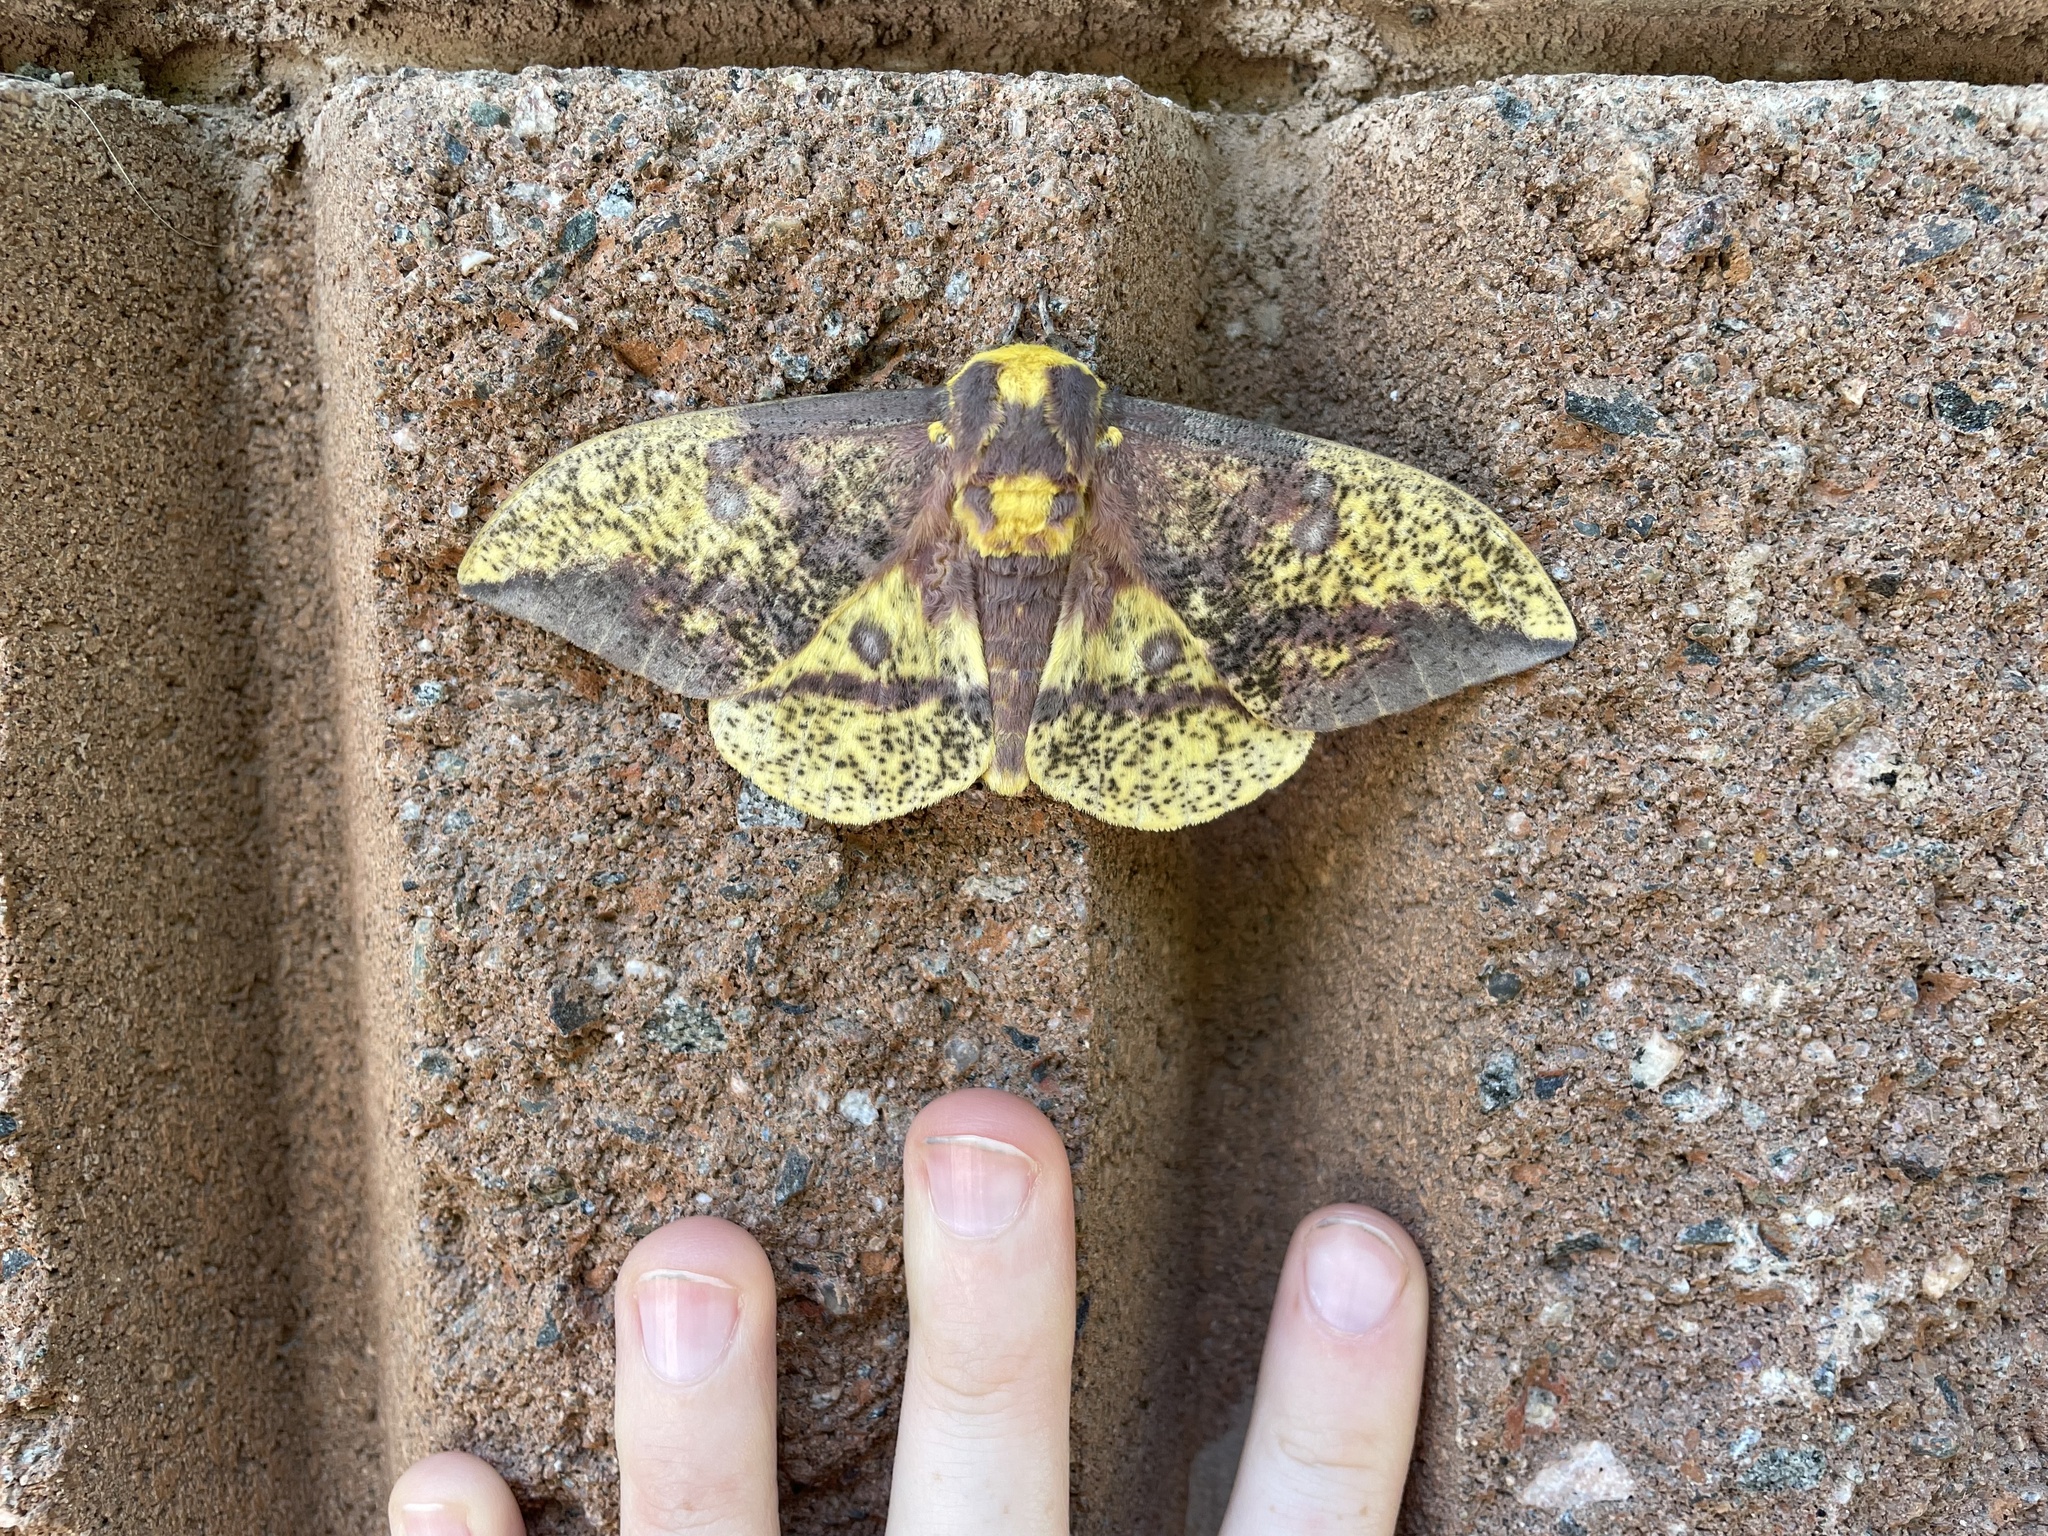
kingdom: Animalia
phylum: Arthropoda
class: Insecta
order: Lepidoptera
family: Saturniidae
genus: Eacles
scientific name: Eacles
